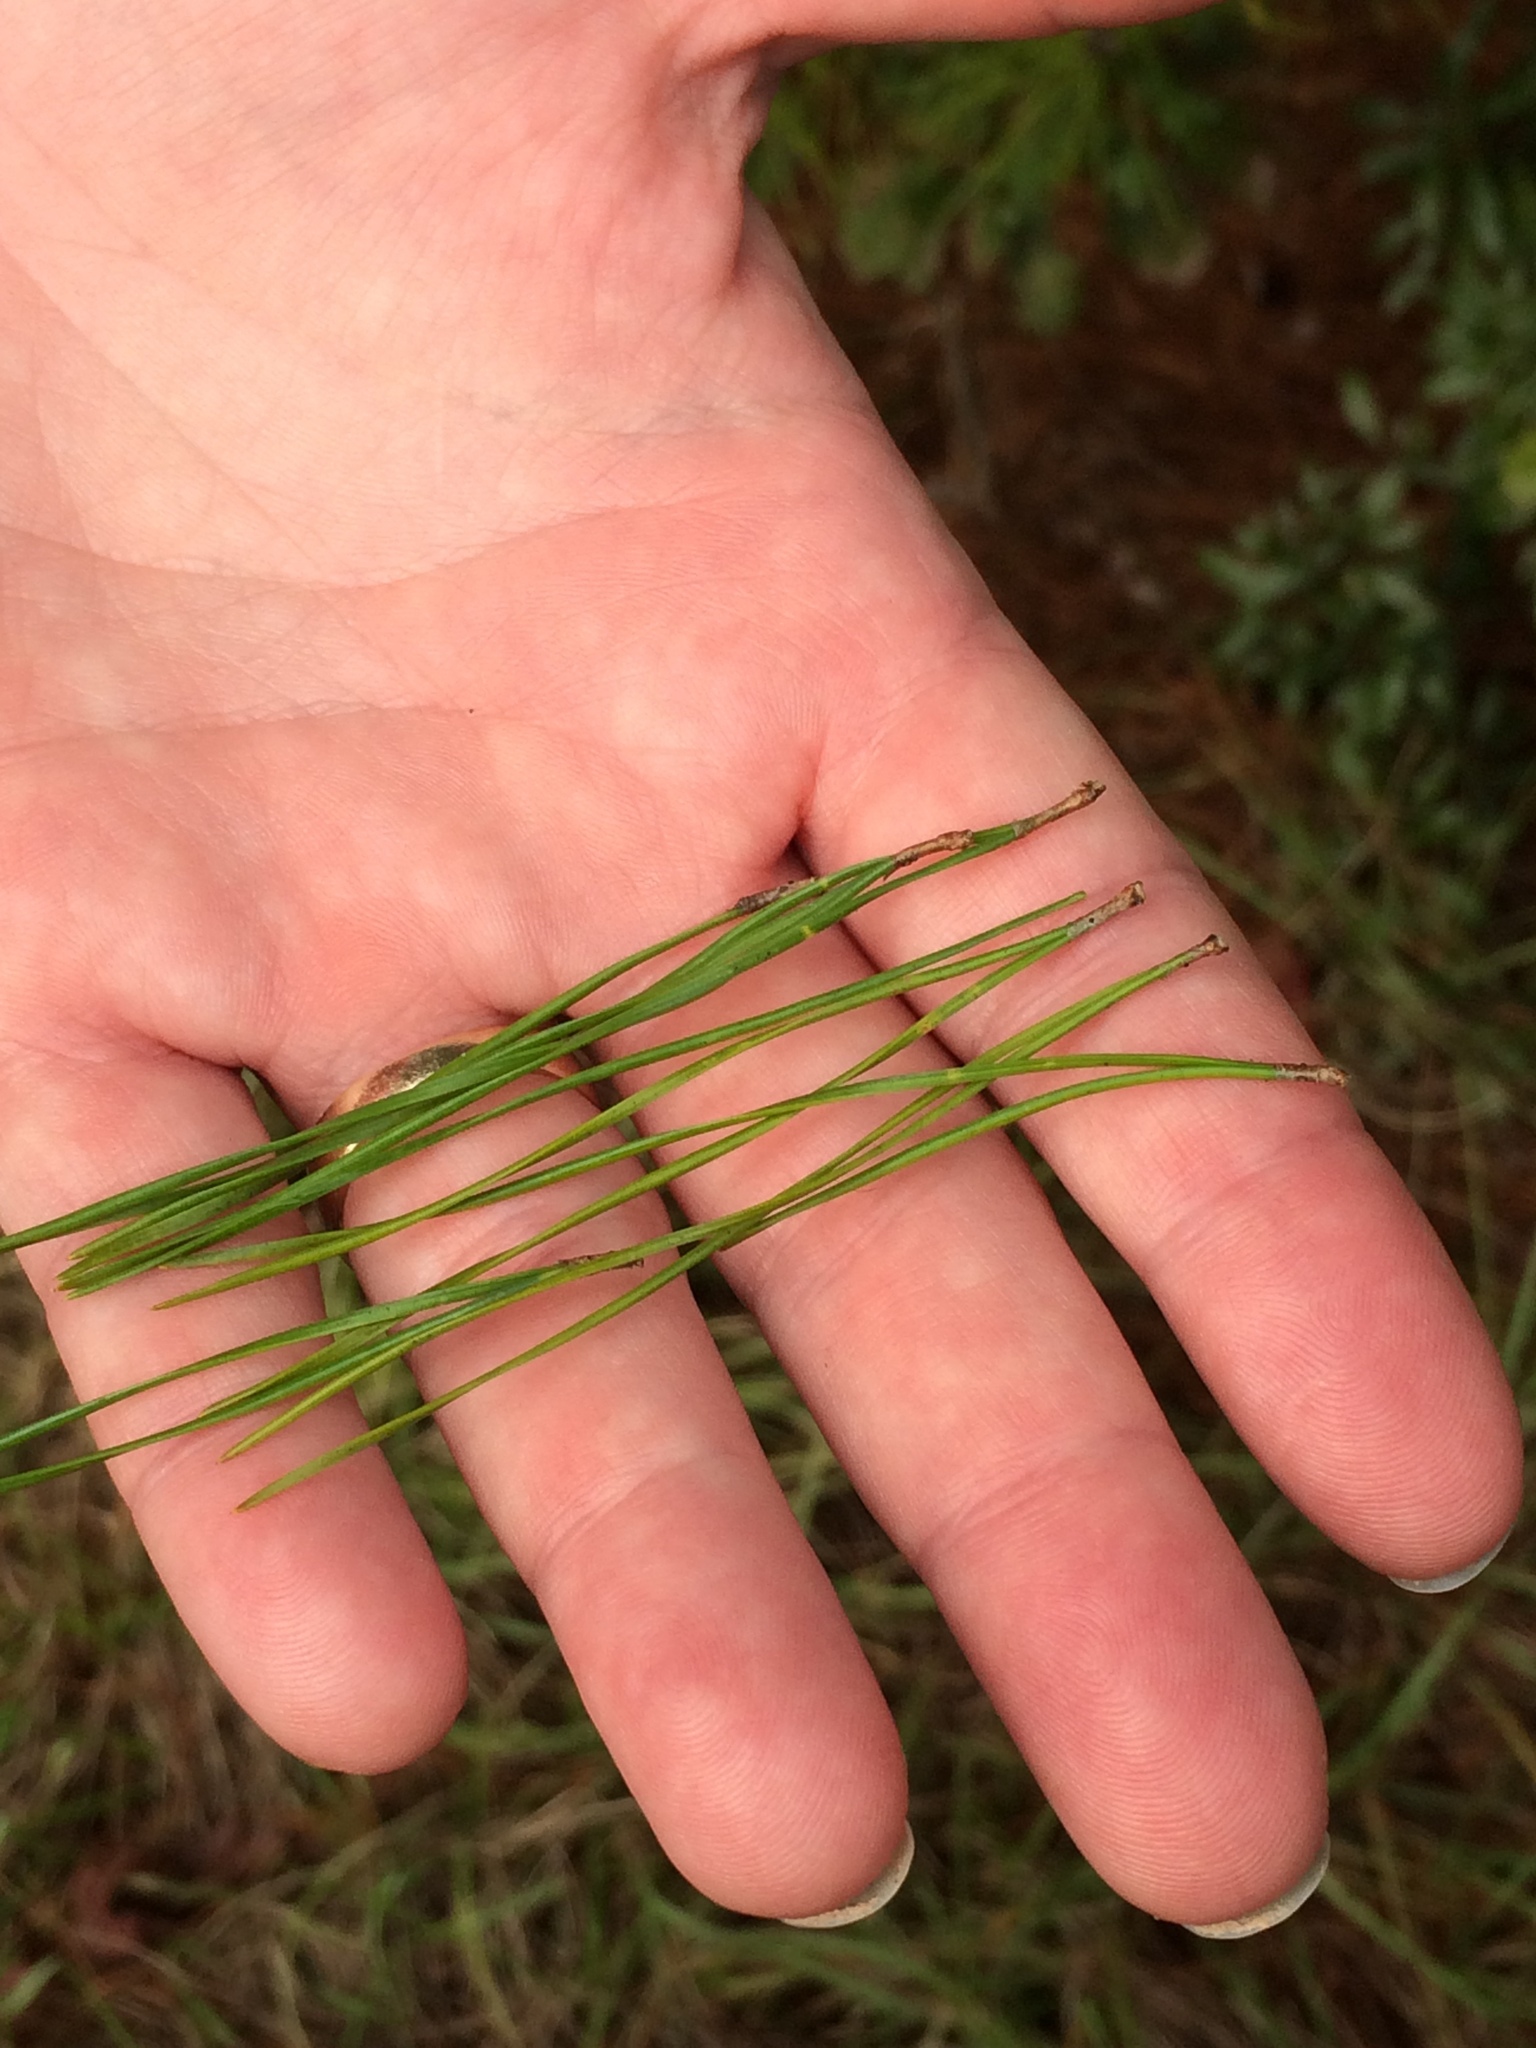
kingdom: Plantae
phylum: Tracheophyta
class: Pinopsida
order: Pinales
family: Pinaceae
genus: Pinus
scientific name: Pinus glabra
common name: Spruce pine
